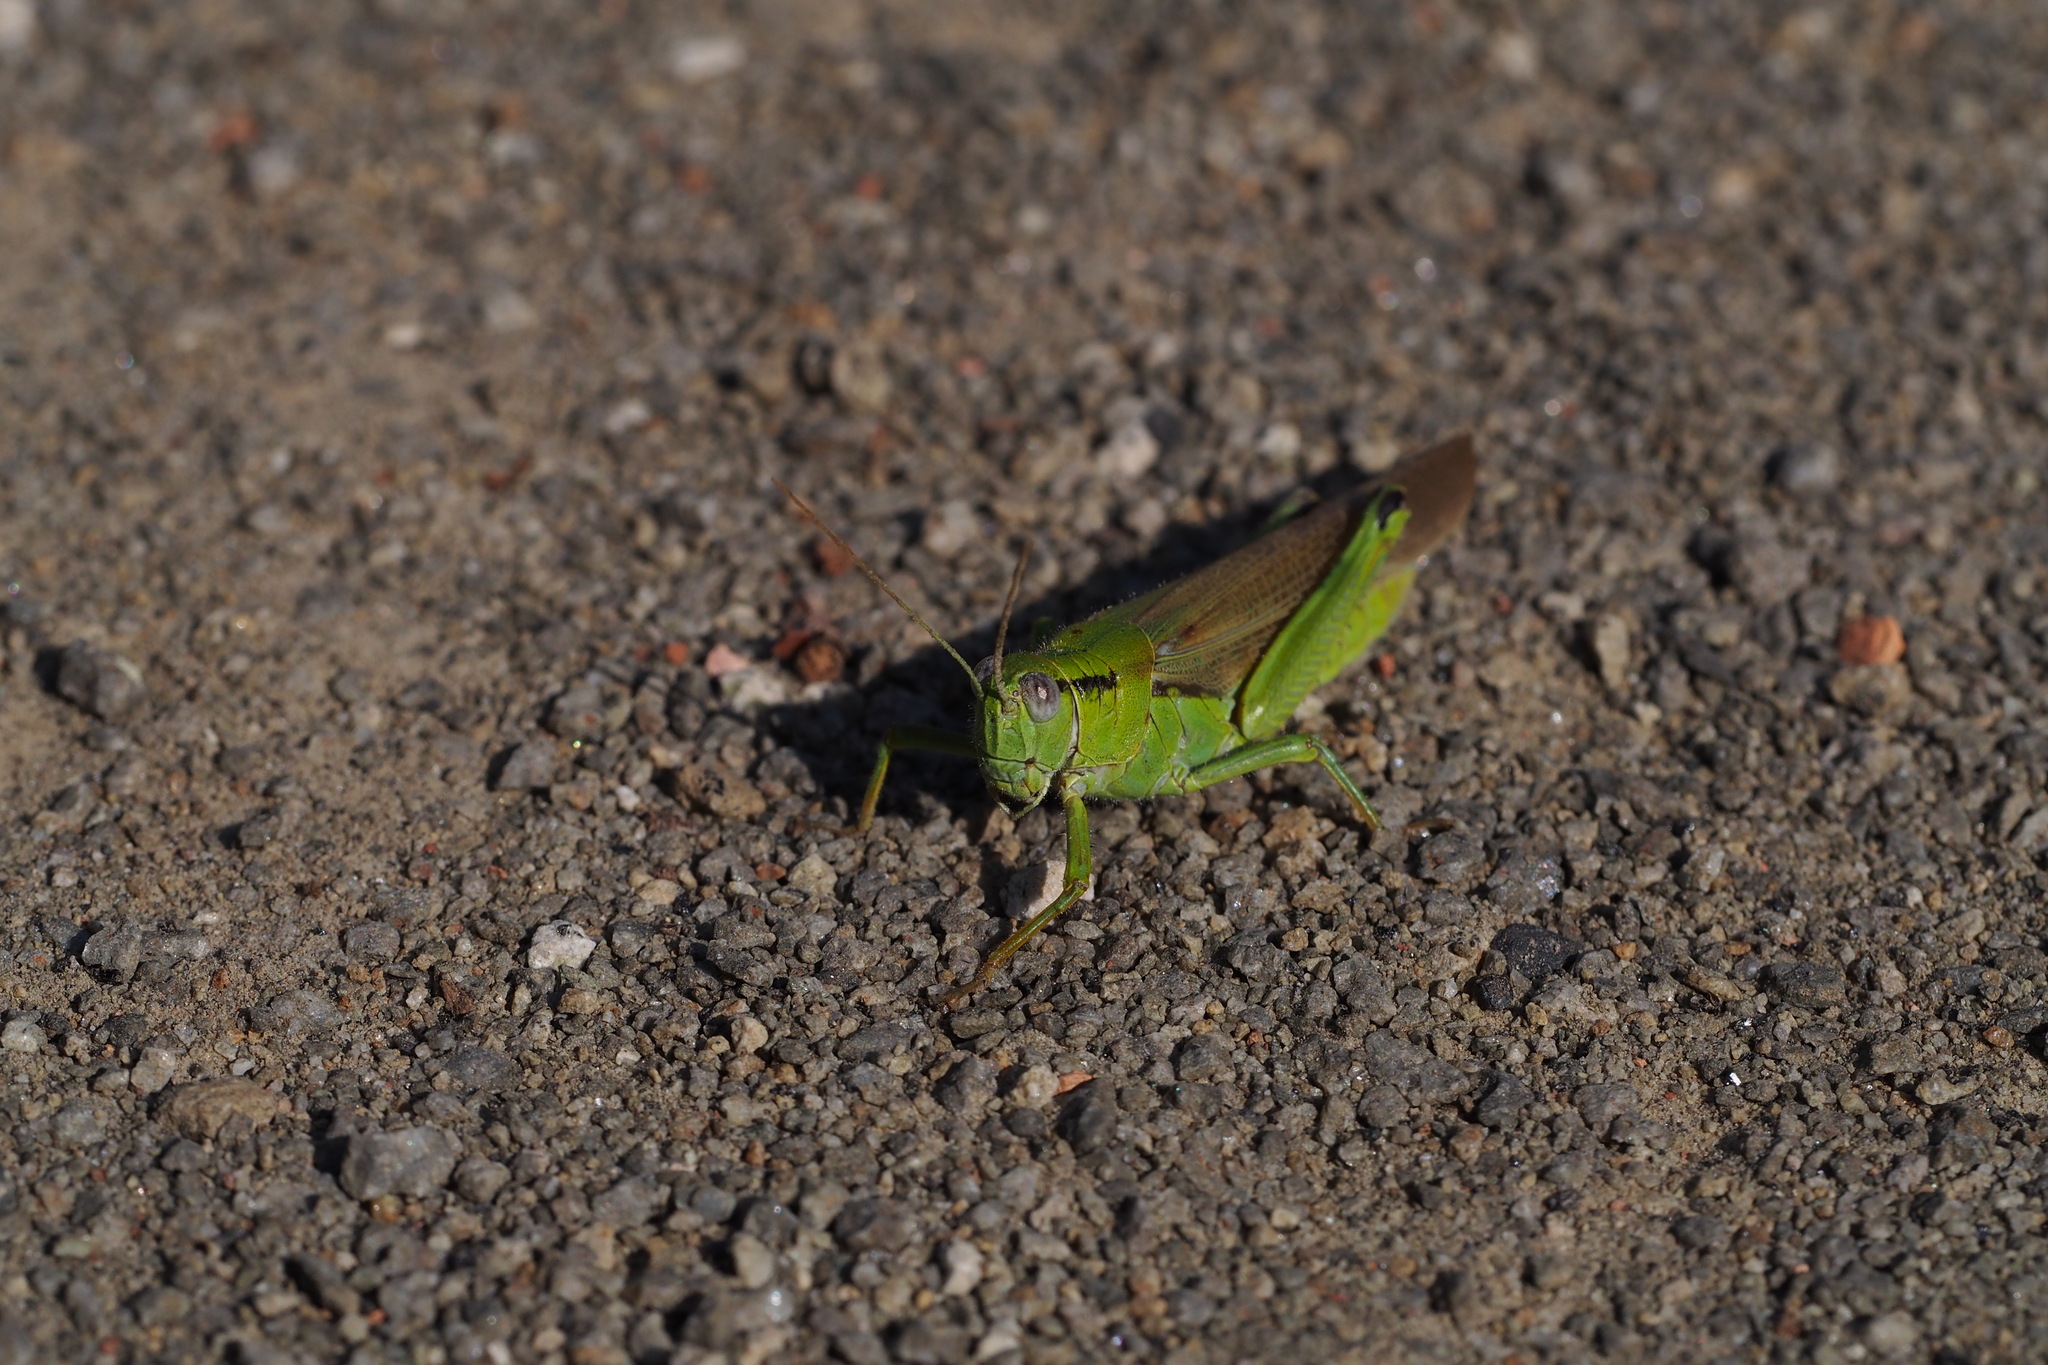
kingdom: Animalia
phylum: Arthropoda
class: Insecta
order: Orthoptera
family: Acrididae
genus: Confusacris
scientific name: Confusacris longipennis
